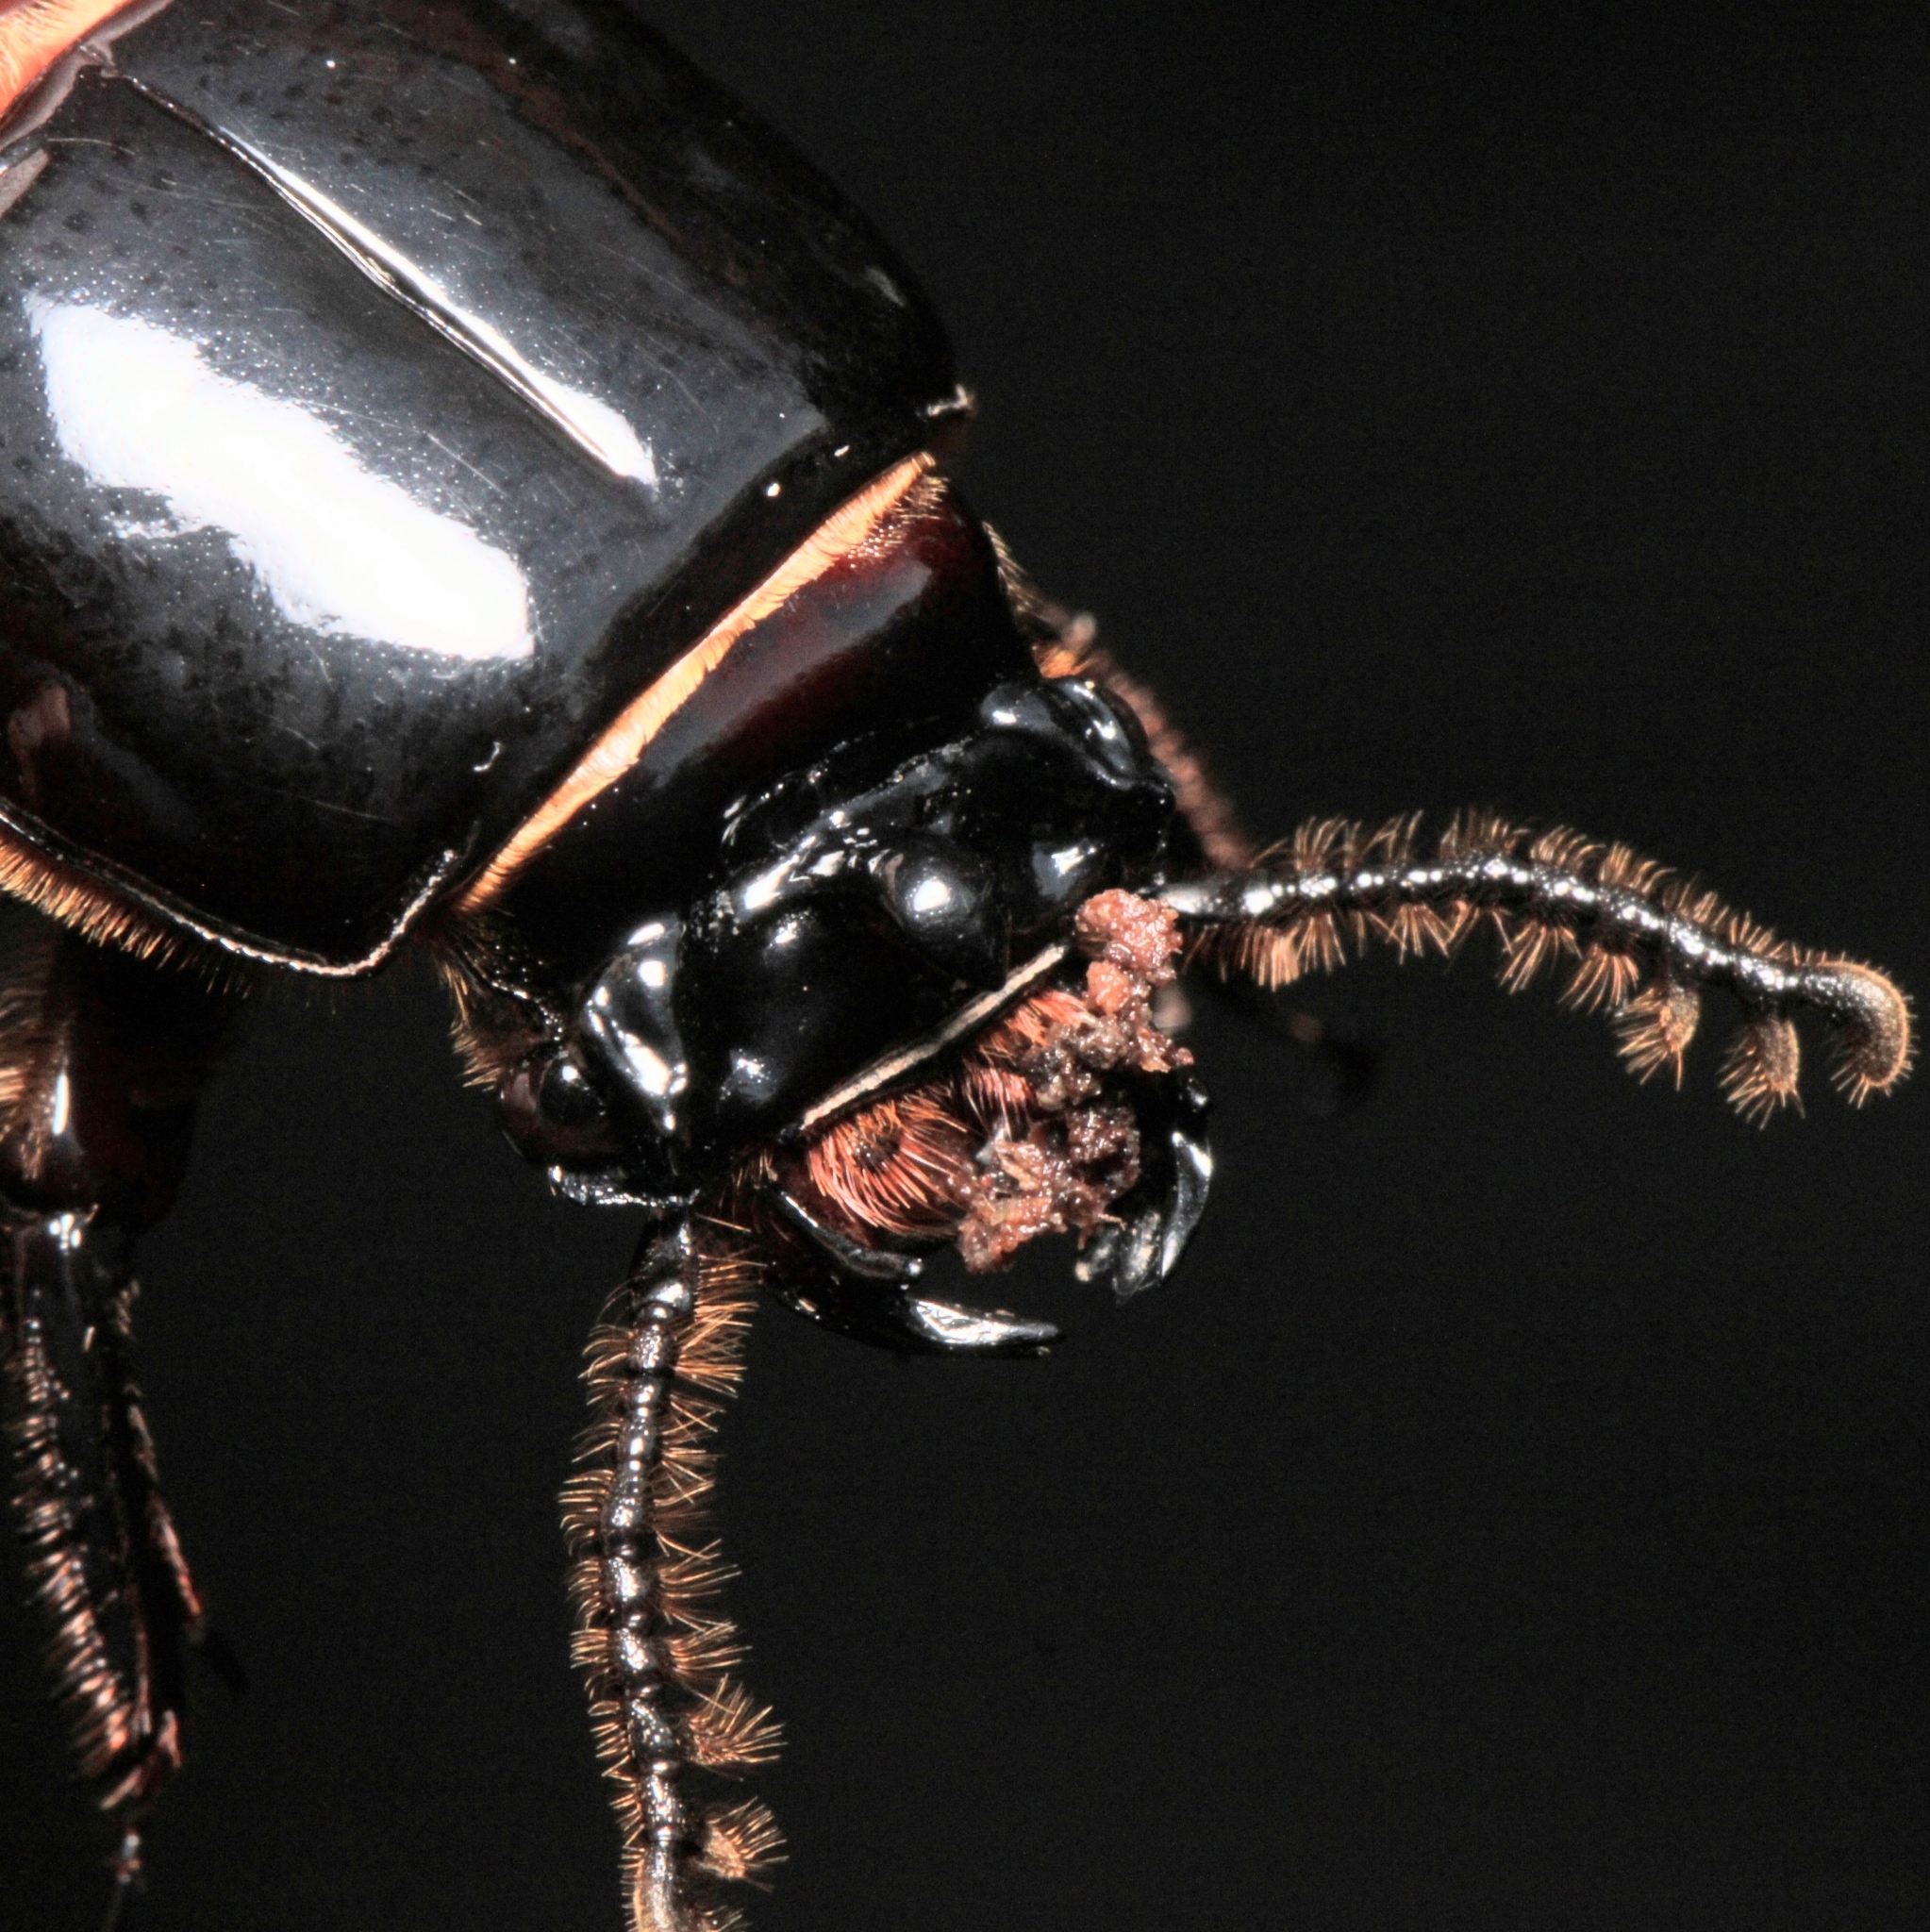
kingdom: Animalia
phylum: Arthropoda
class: Insecta
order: Coleoptera
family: Passalidae
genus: Odontotaenius
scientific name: Odontotaenius disjunctus
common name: Patent leather beetle
